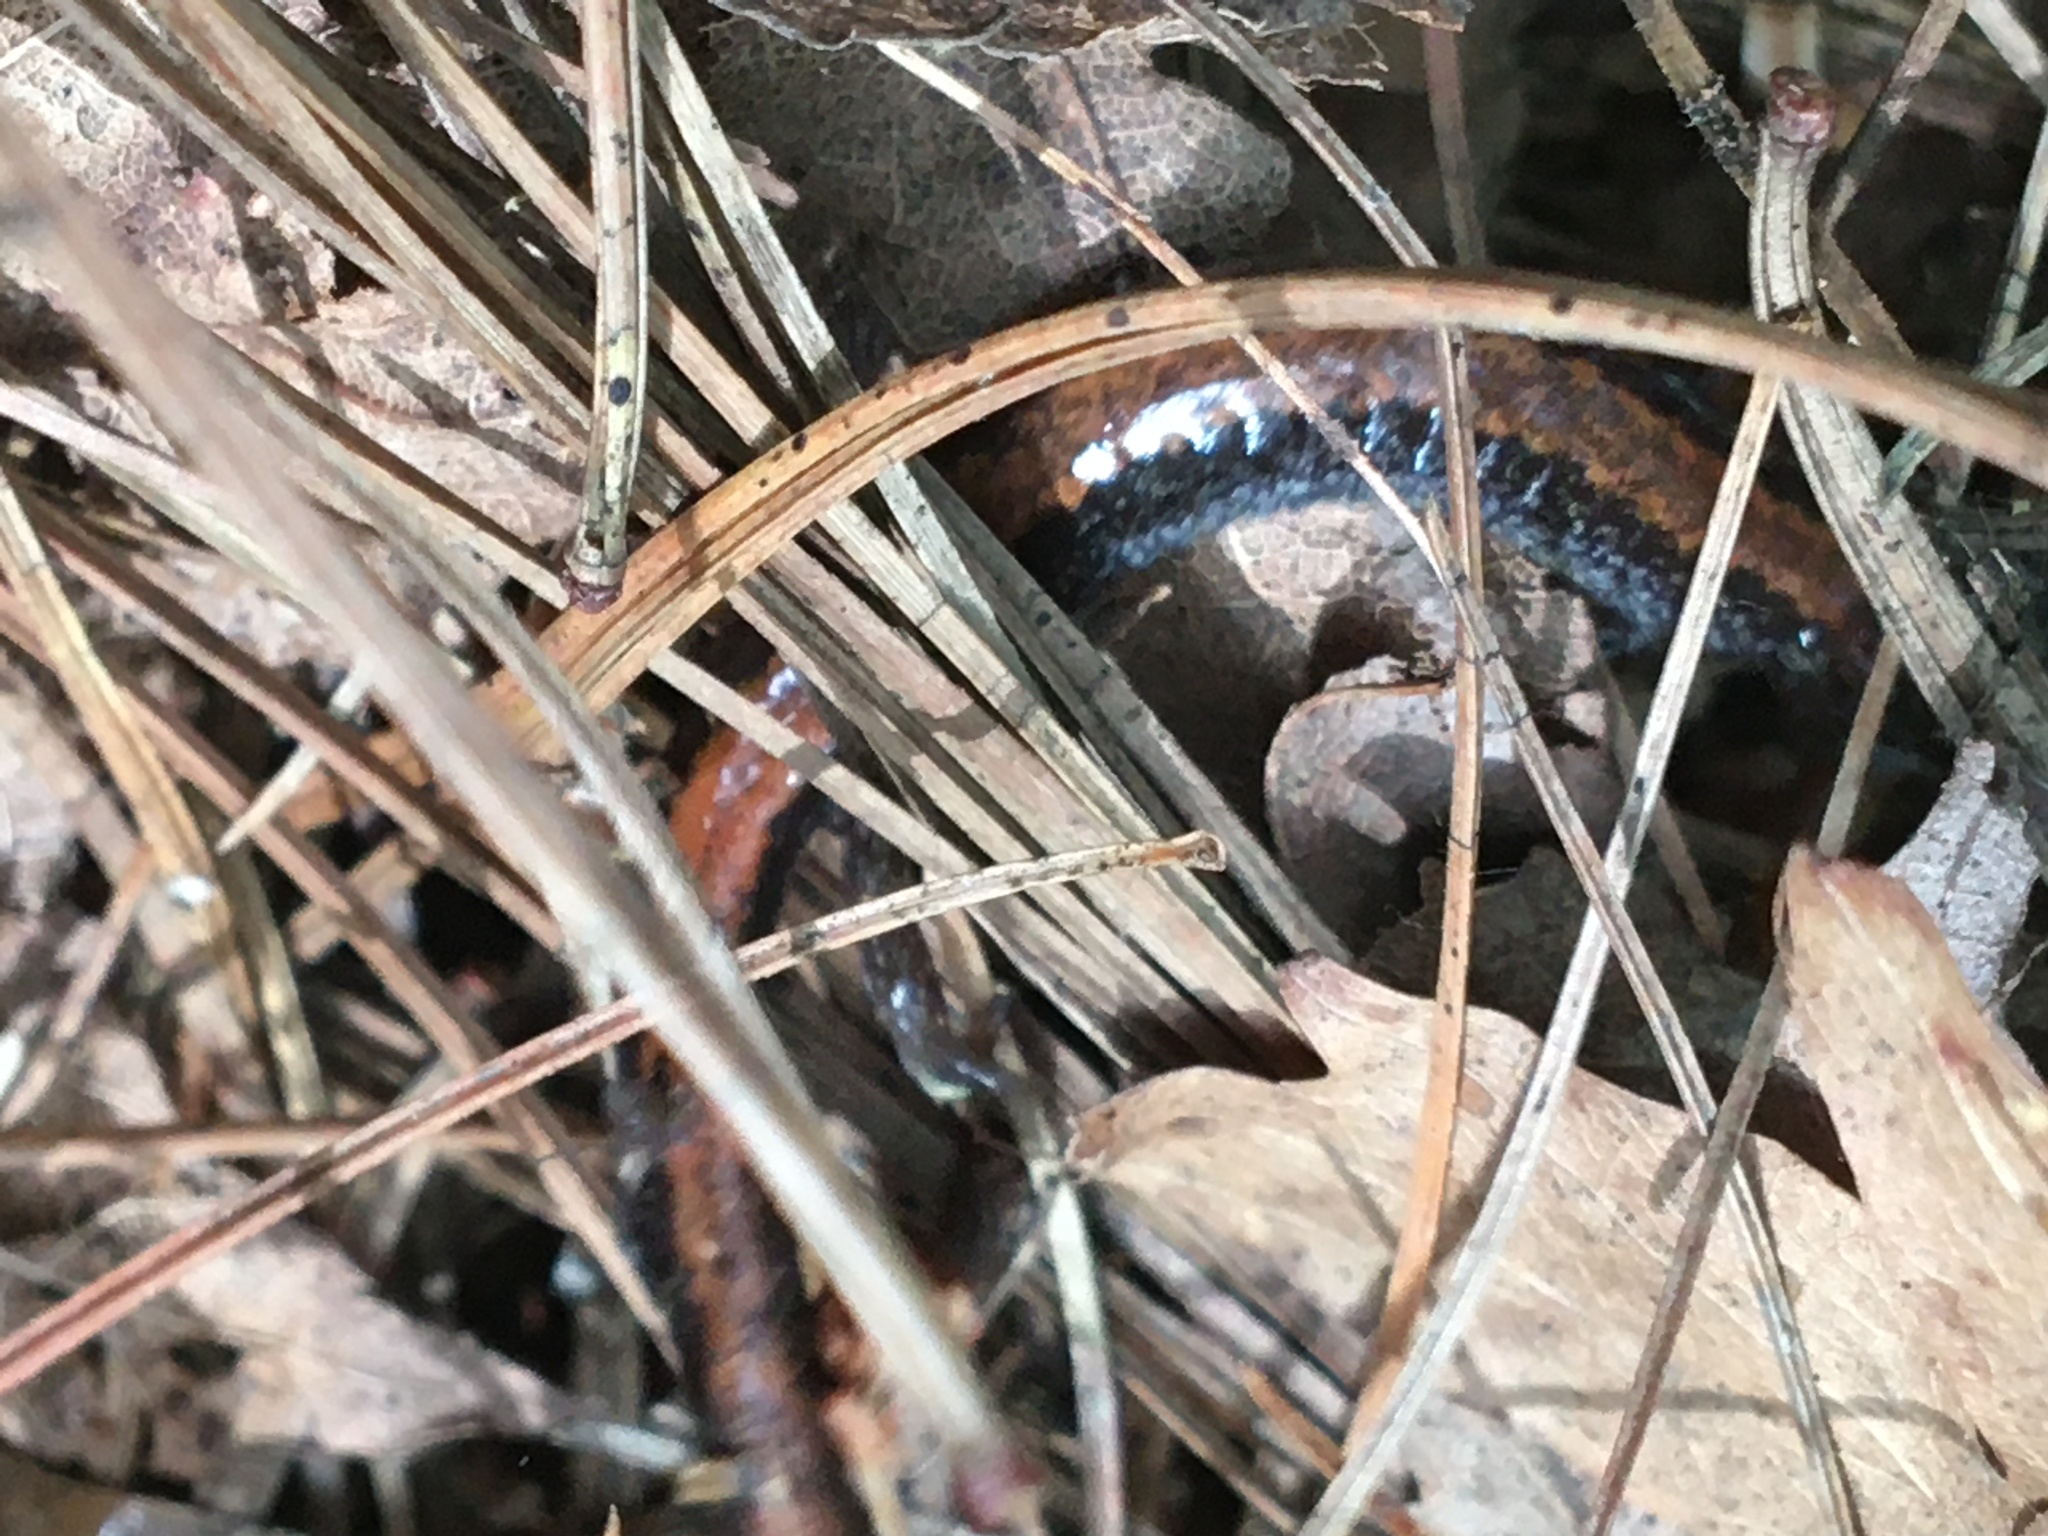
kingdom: Animalia
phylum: Chordata
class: Amphibia
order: Caudata
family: Plethodontidae
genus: Plethodon
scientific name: Plethodon cinereus
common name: Redback salamander
